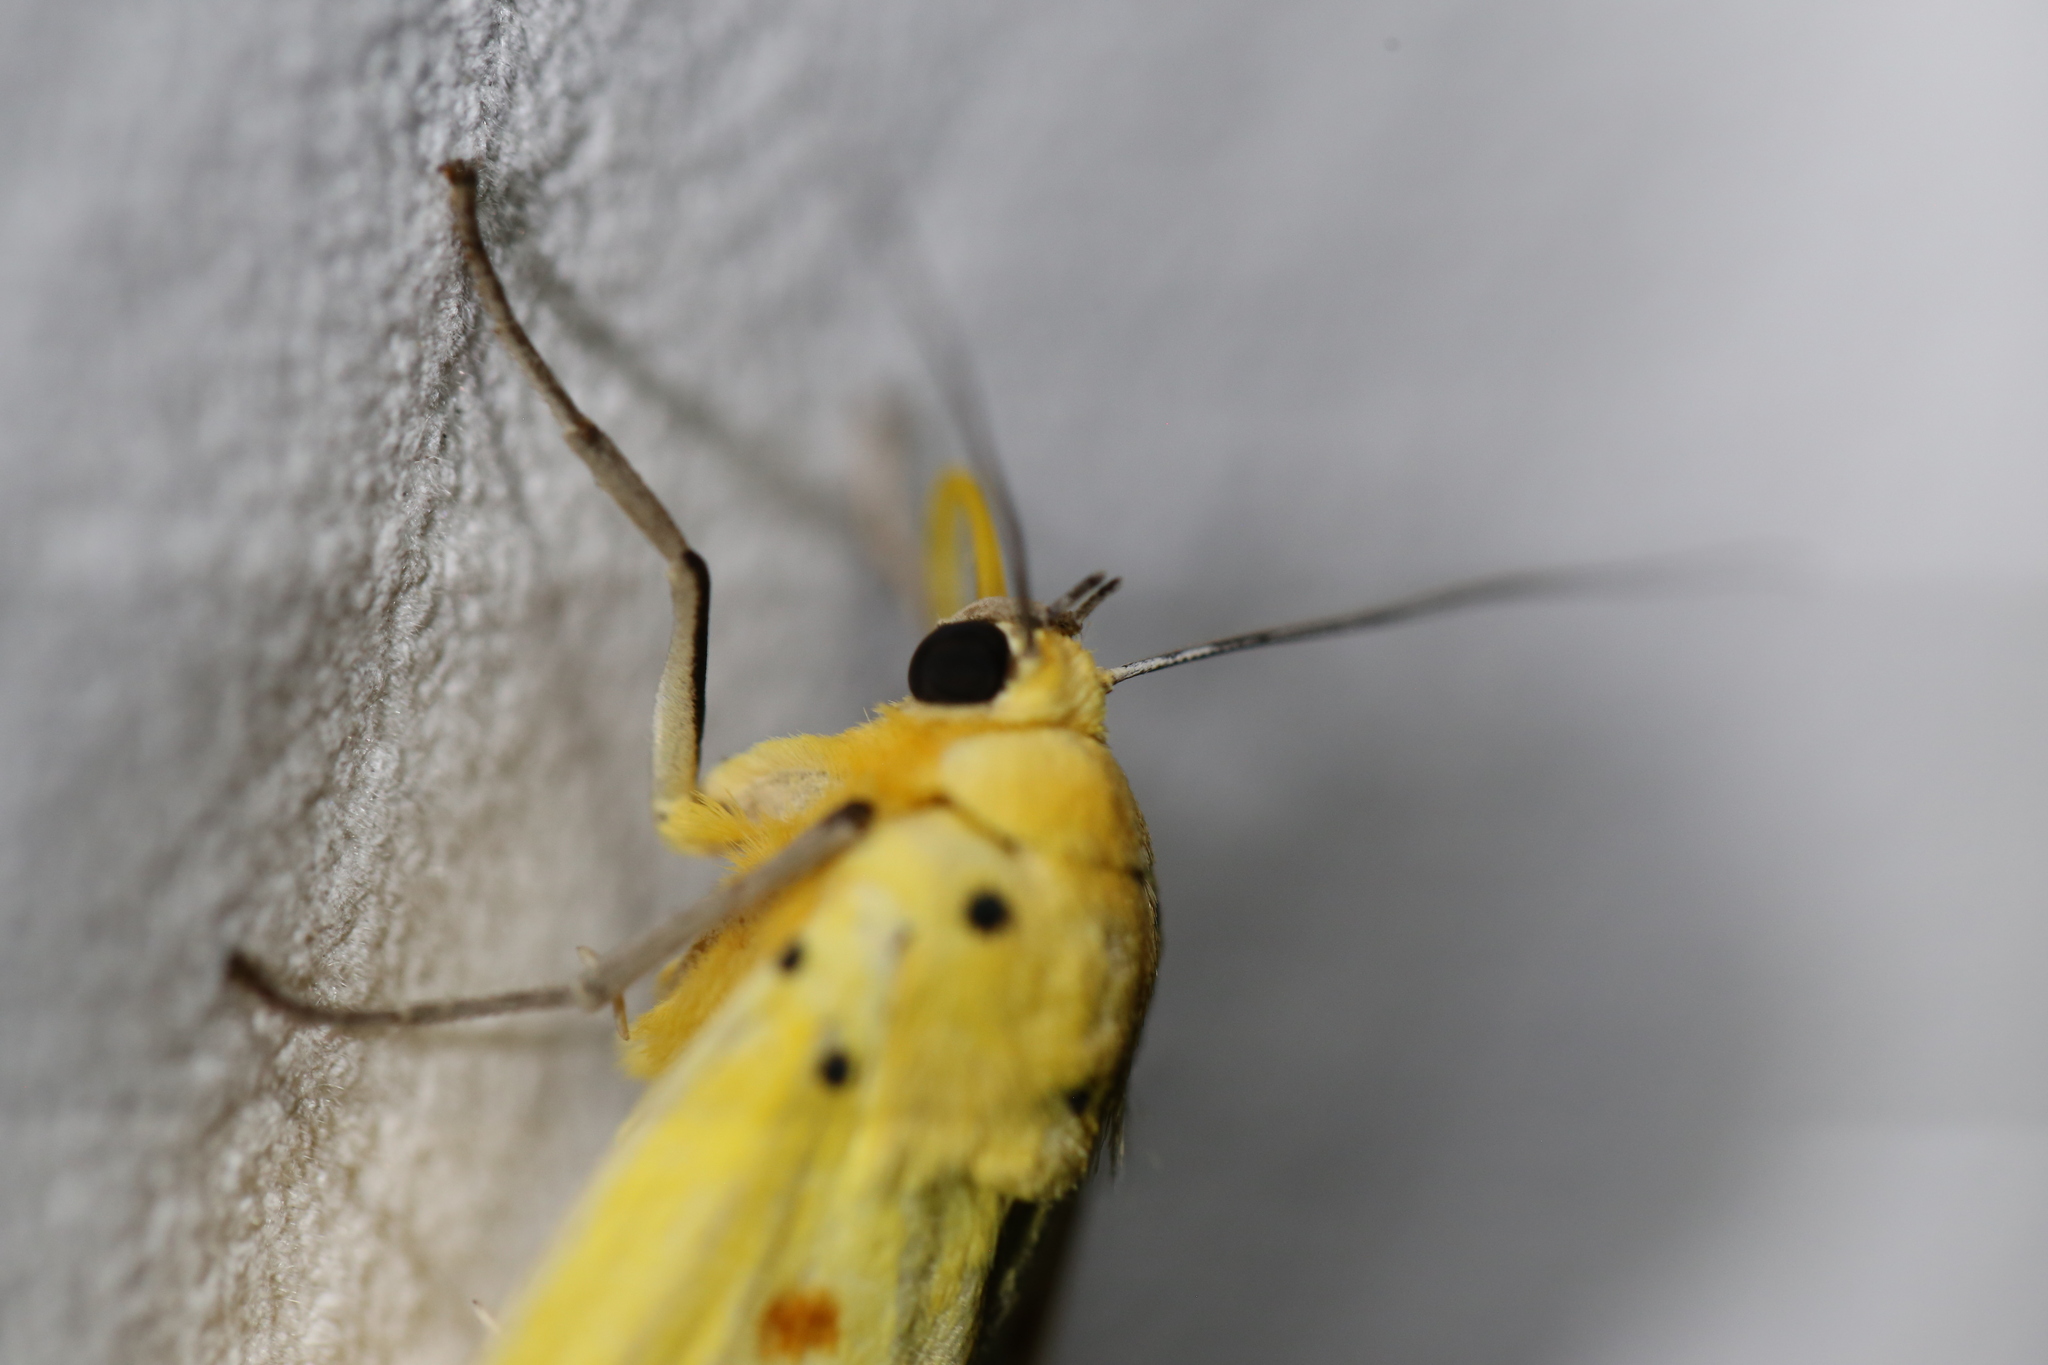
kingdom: Animalia
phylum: Arthropoda
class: Insecta
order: Lepidoptera
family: Noctuidae
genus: Agape
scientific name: Agape chloropyga
